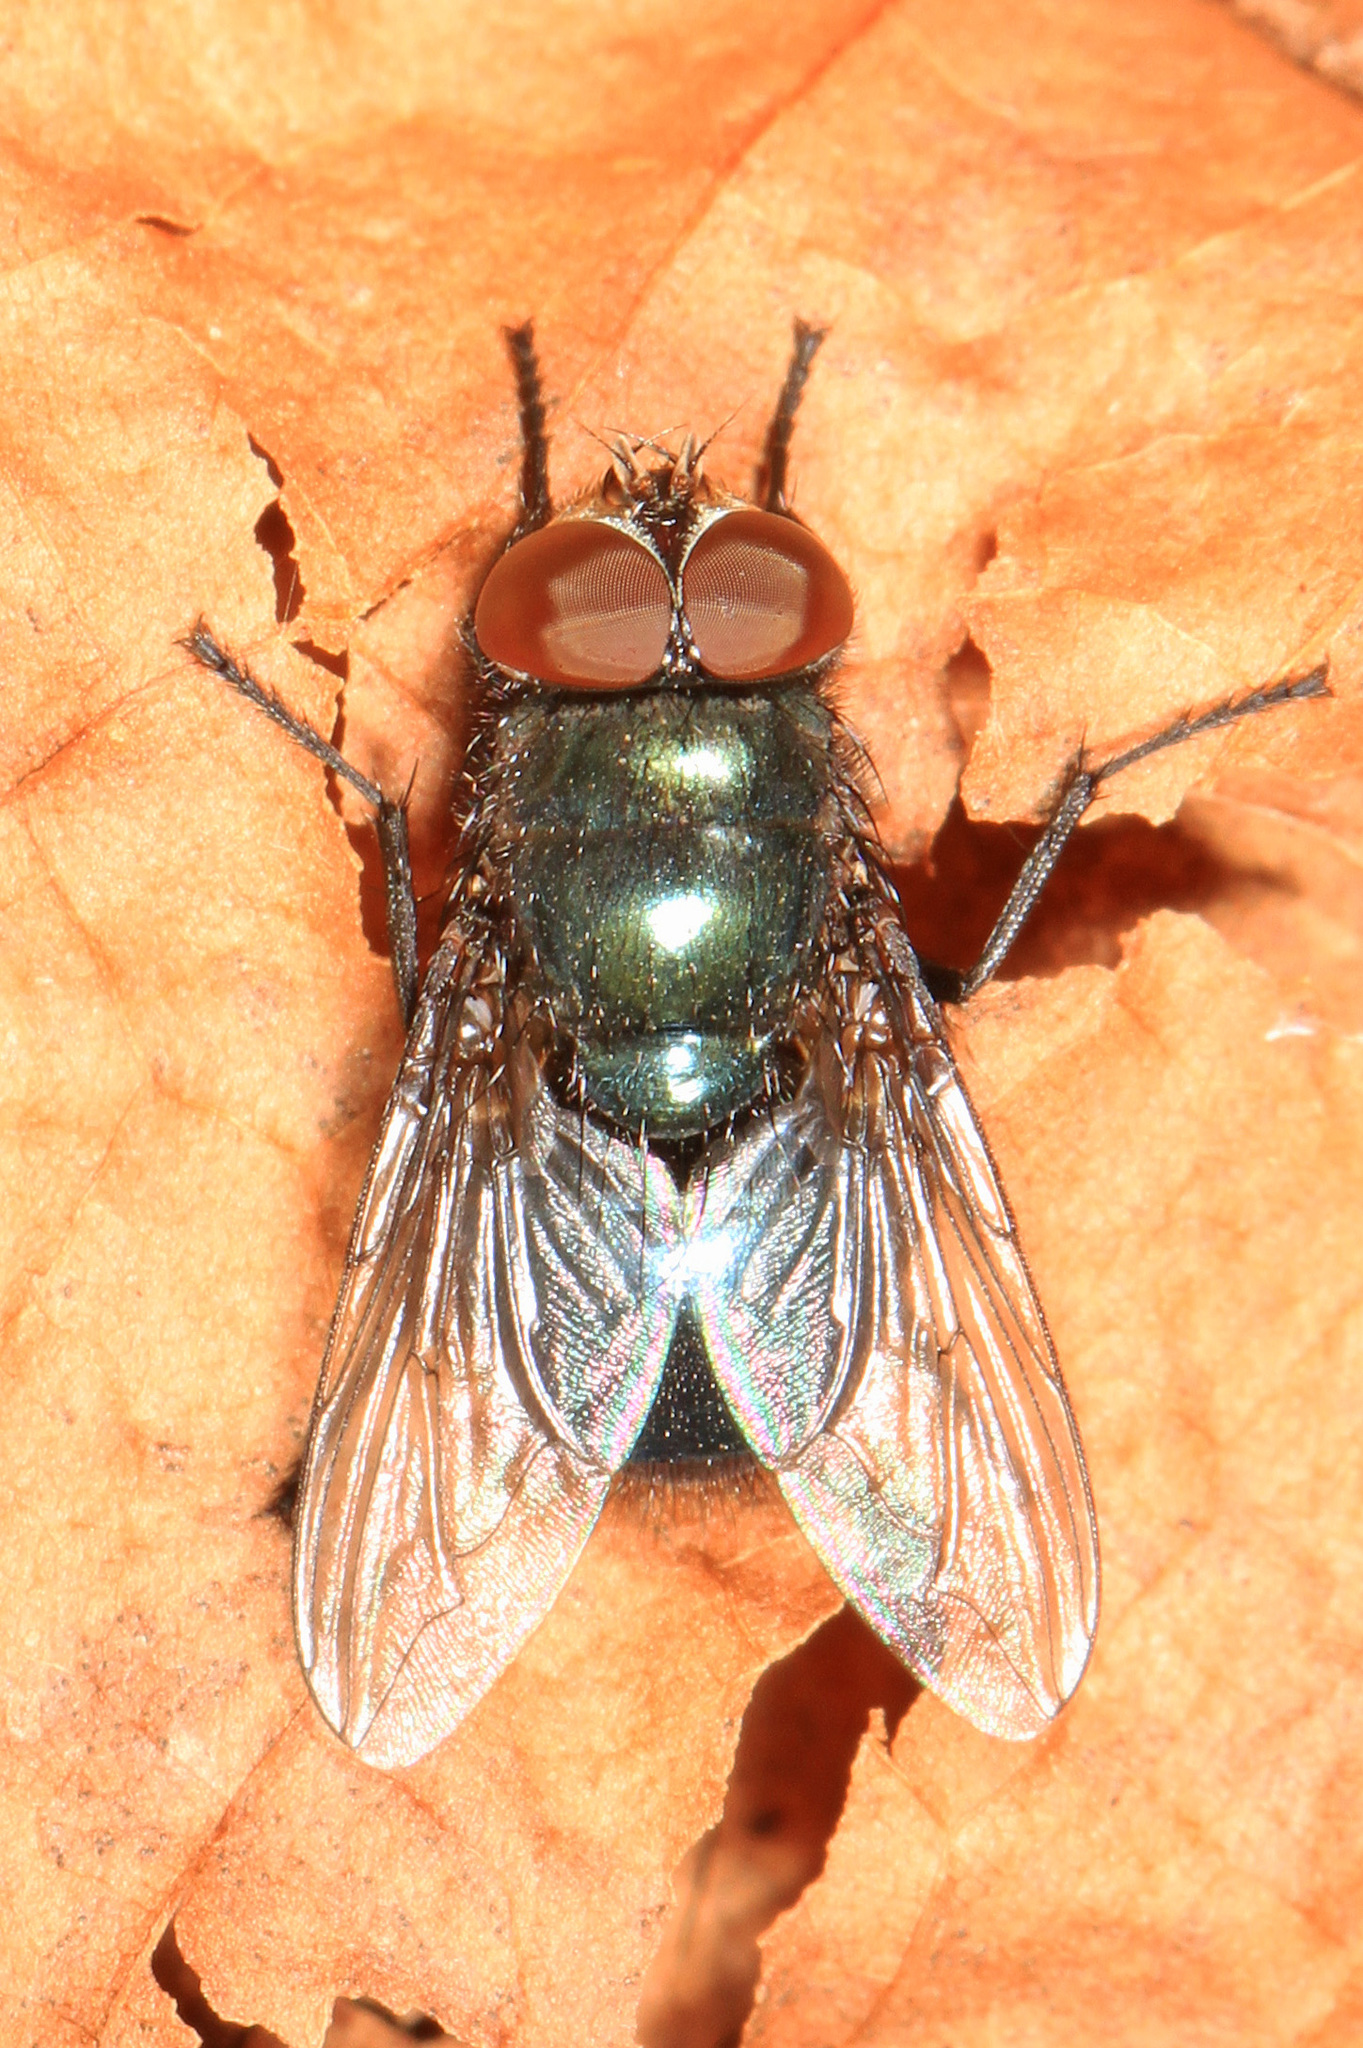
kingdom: Animalia
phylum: Arthropoda
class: Insecta
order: Diptera
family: Calliphoridae
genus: Phormia
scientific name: Phormia regina
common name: Black blow fly
